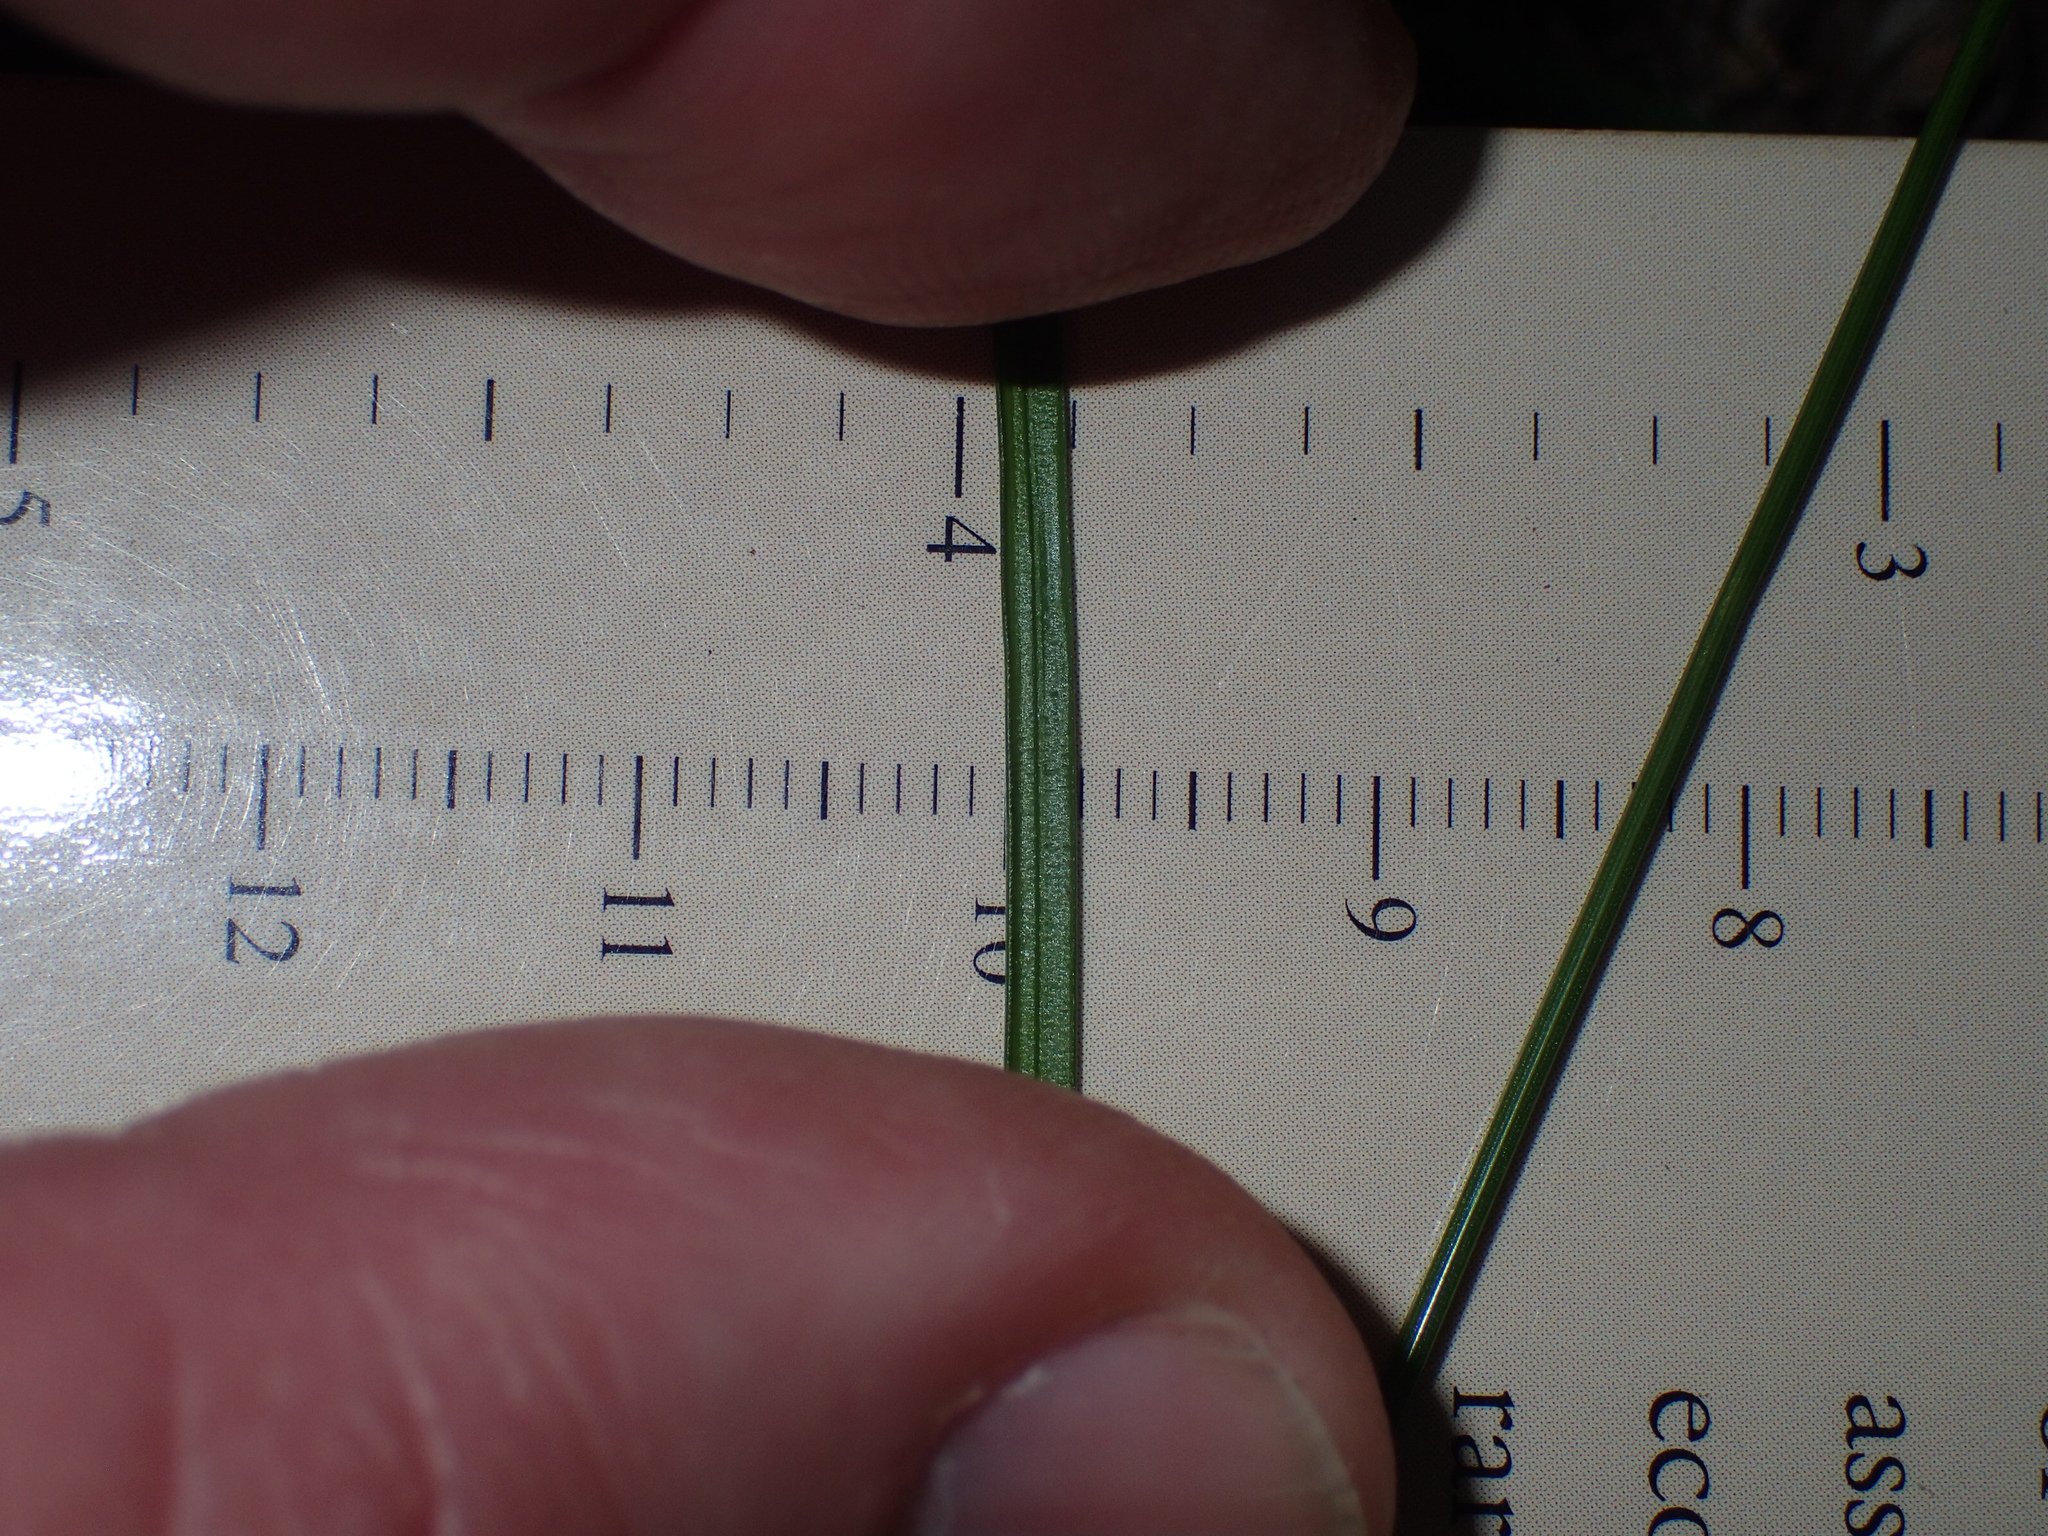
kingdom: Plantae
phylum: Tracheophyta
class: Liliopsida
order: Poales
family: Cyperaceae
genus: Carex
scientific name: Carex radiata
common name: Eastern star sedge
